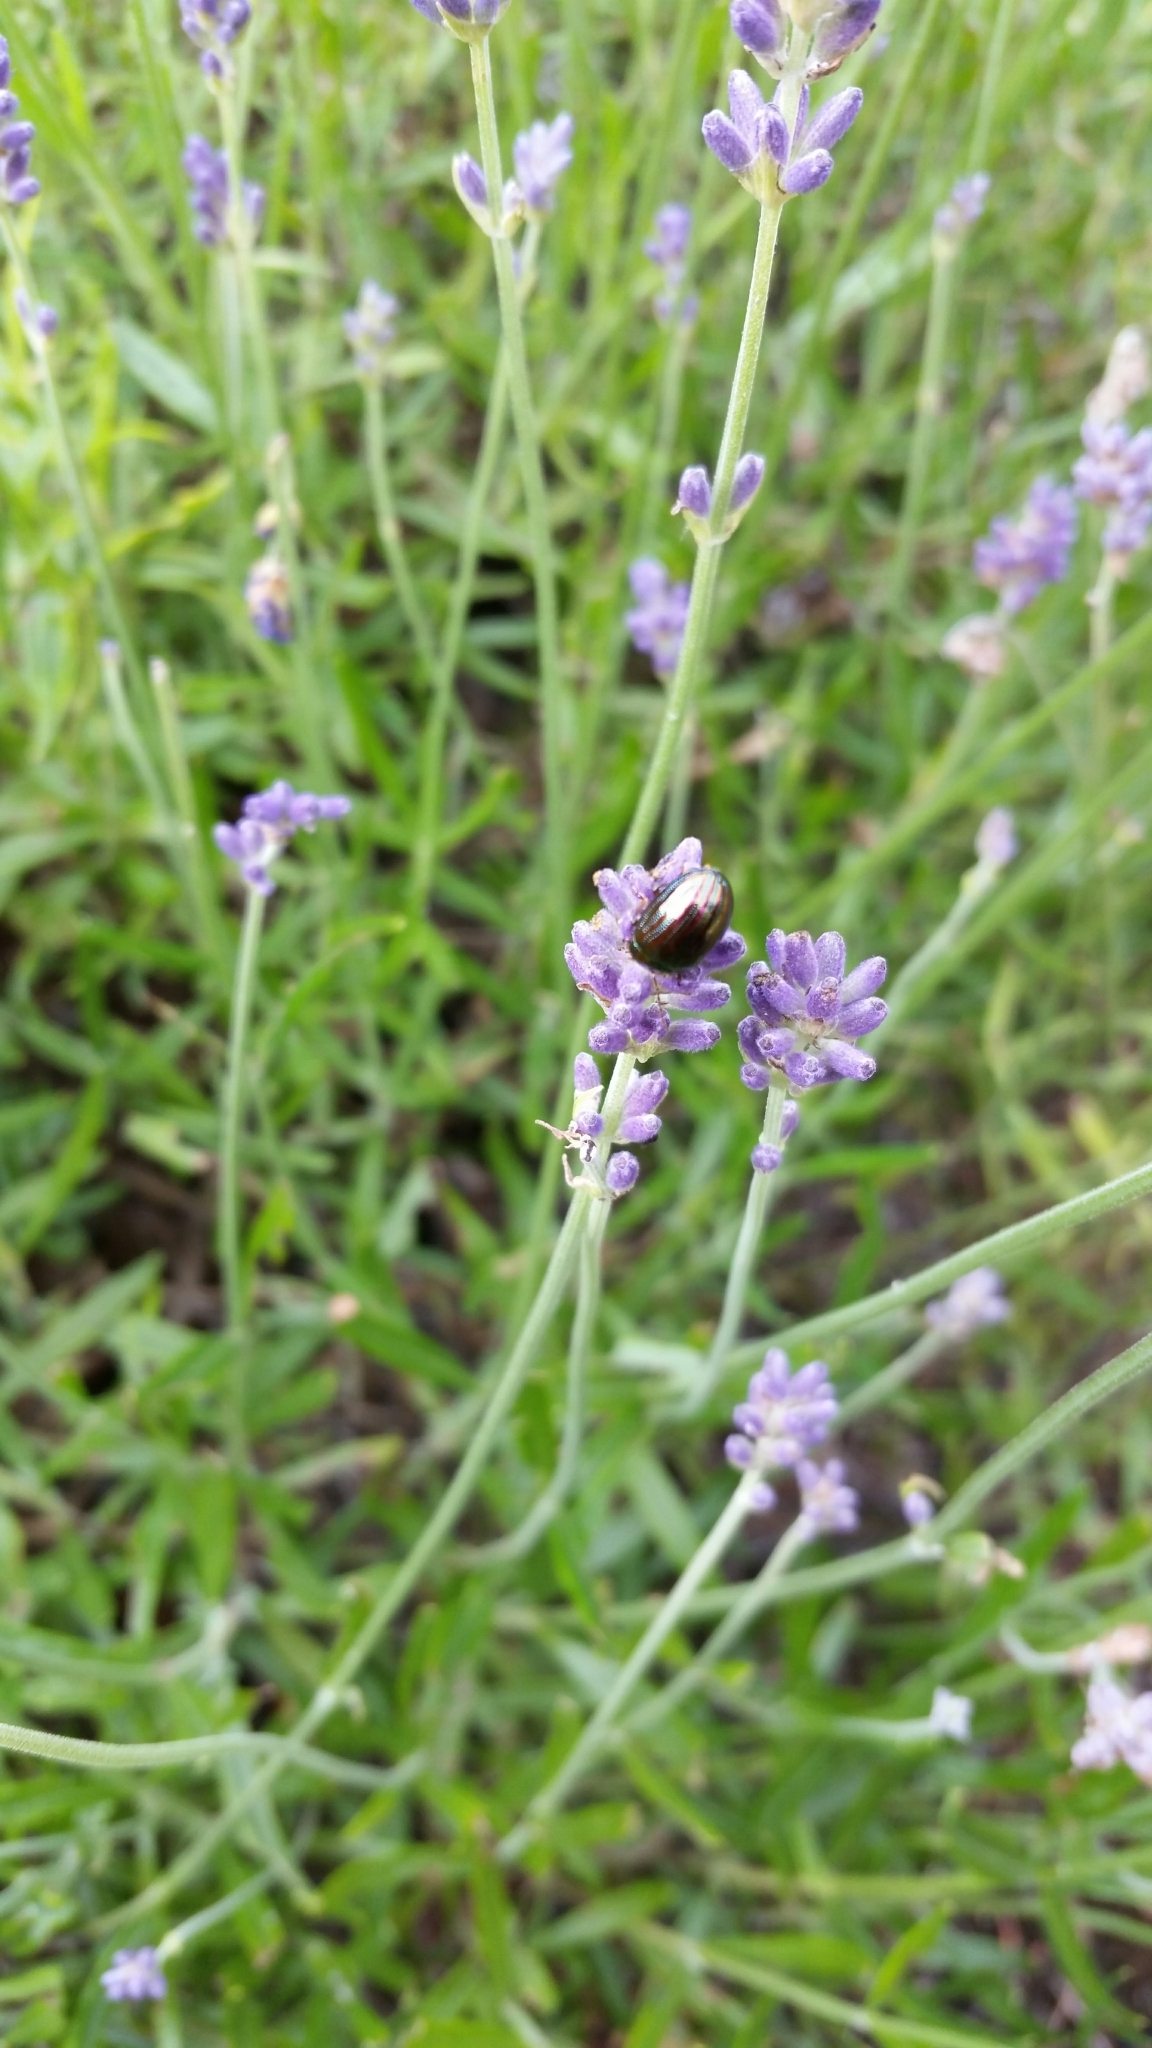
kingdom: Animalia
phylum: Arthropoda
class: Insecta
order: Coleoptera
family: Chrysomelidae
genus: Chrysolina
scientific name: Chrysolina americana
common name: Rosemary beetle
